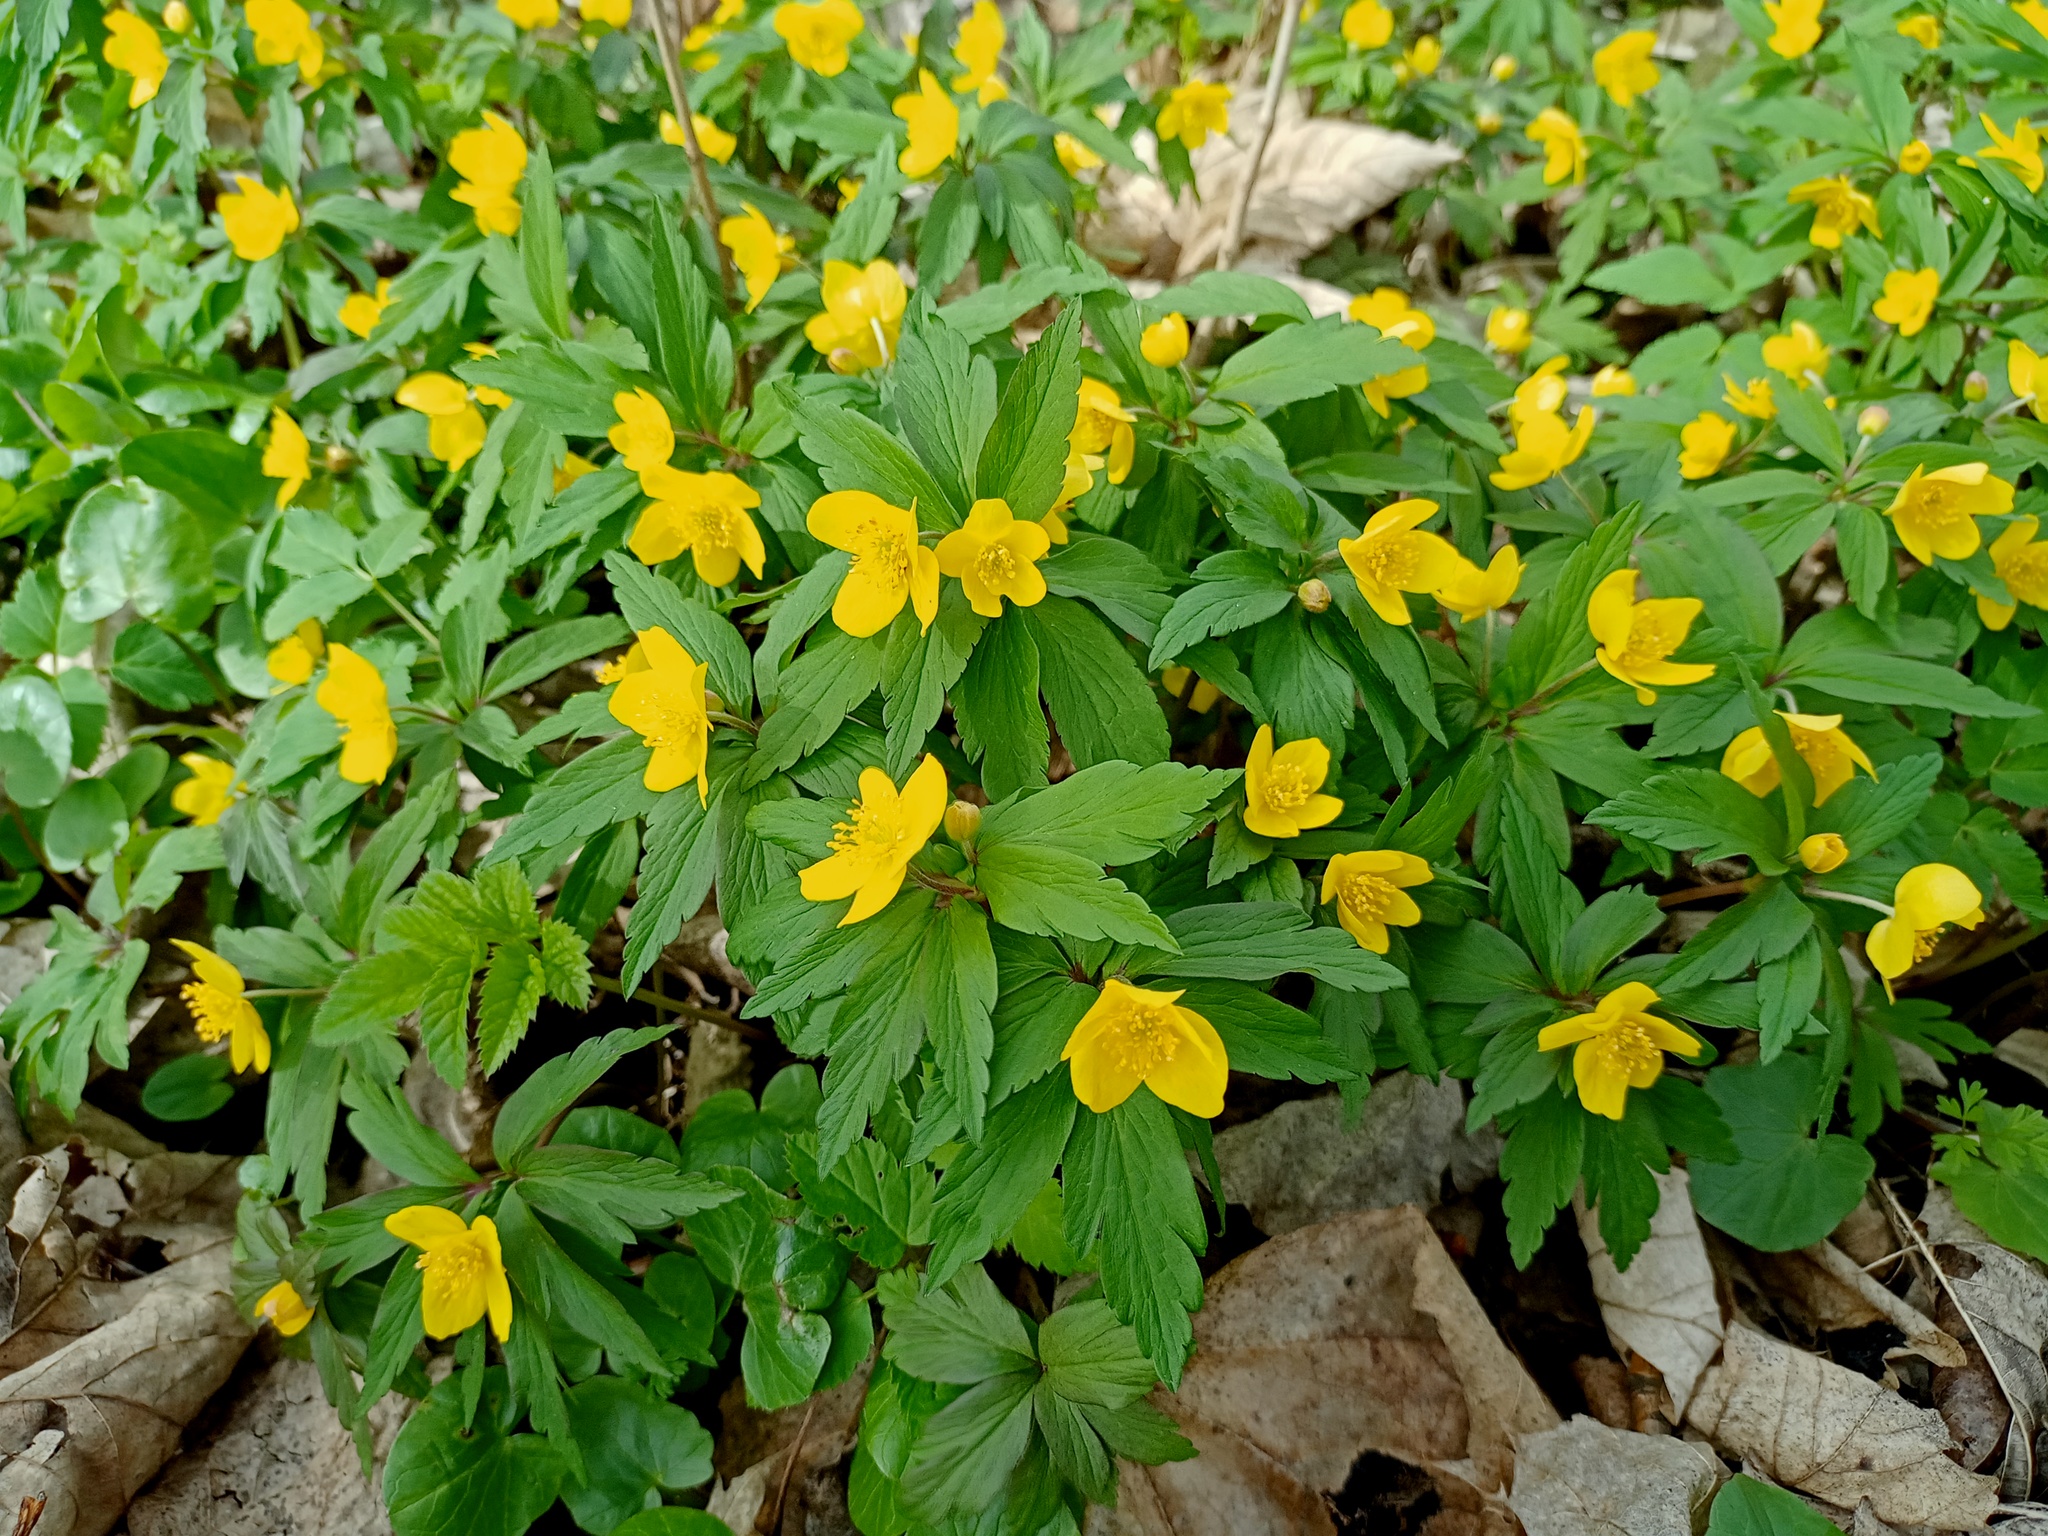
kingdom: Plantae
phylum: Tracheophyta
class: Magnoliopsida
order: Ranunculales
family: Ranunculaceae
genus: Anemone
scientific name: Anemone ranunculoides
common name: Yellow anemone
